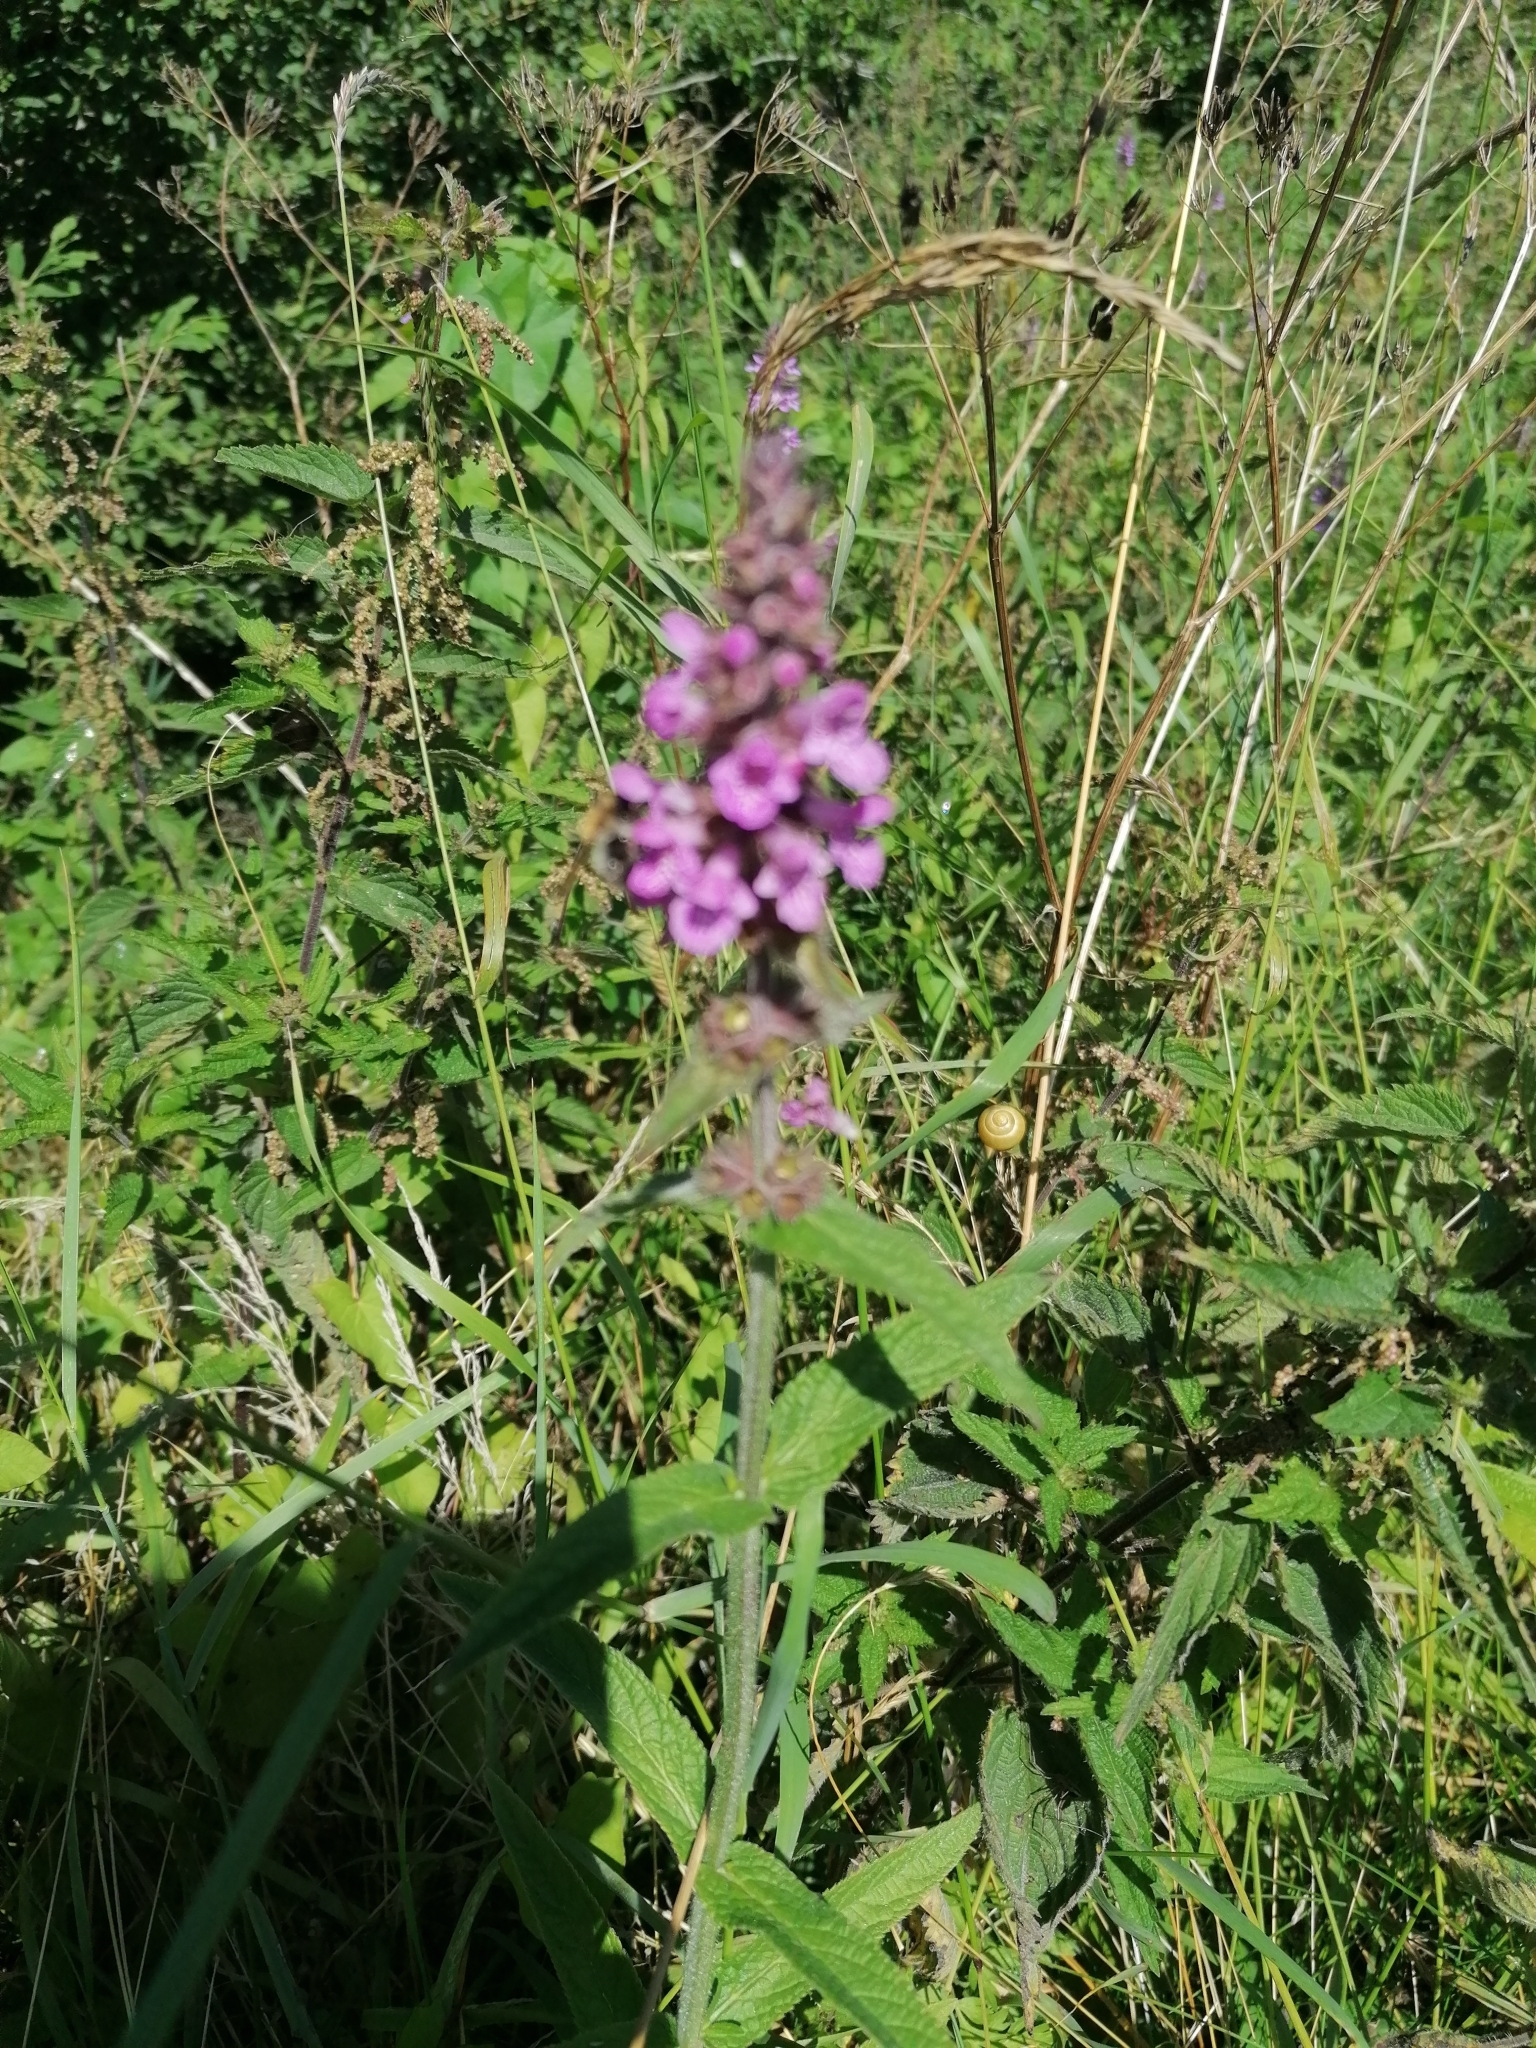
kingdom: Plantae
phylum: Tracheophyta
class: Magnoliopsida
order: Lamiales
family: Lamiaceae
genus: Stachys
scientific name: Stachys palustris
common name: Marsh woundwort
